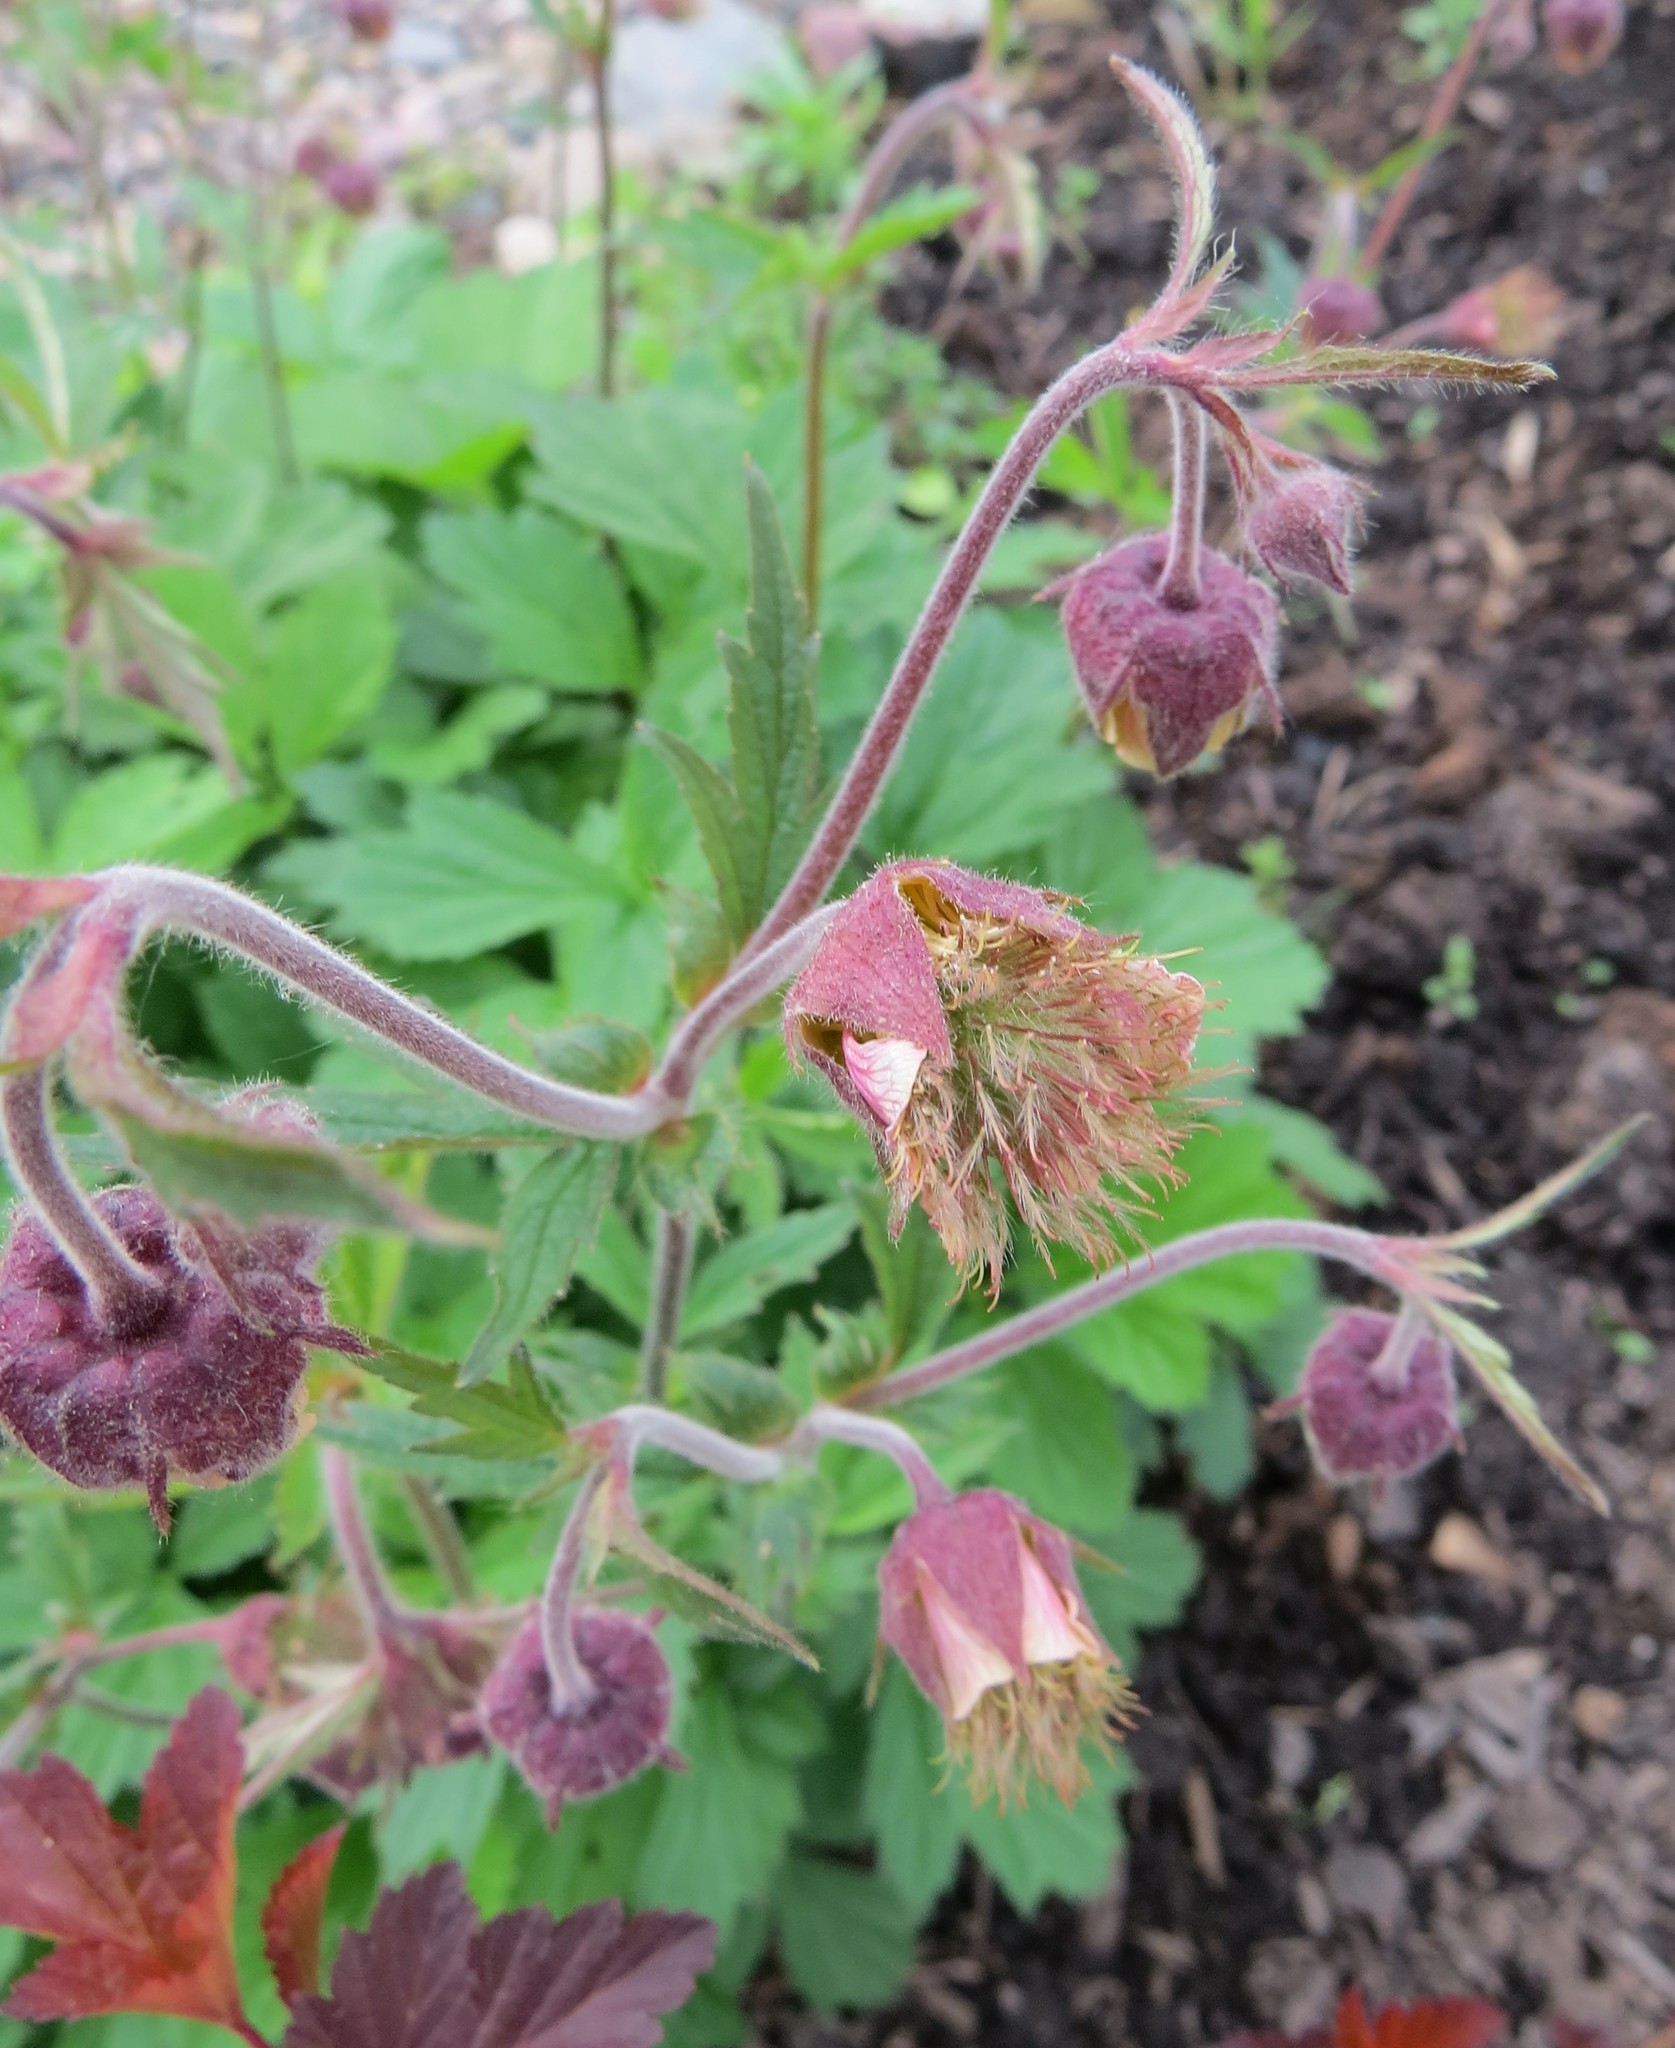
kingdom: Plantae
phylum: Tracheophyta
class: Magnoliopsida
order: Rosales
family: Rosaceae
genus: Geum
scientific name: Geum rivale
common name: Water avens
